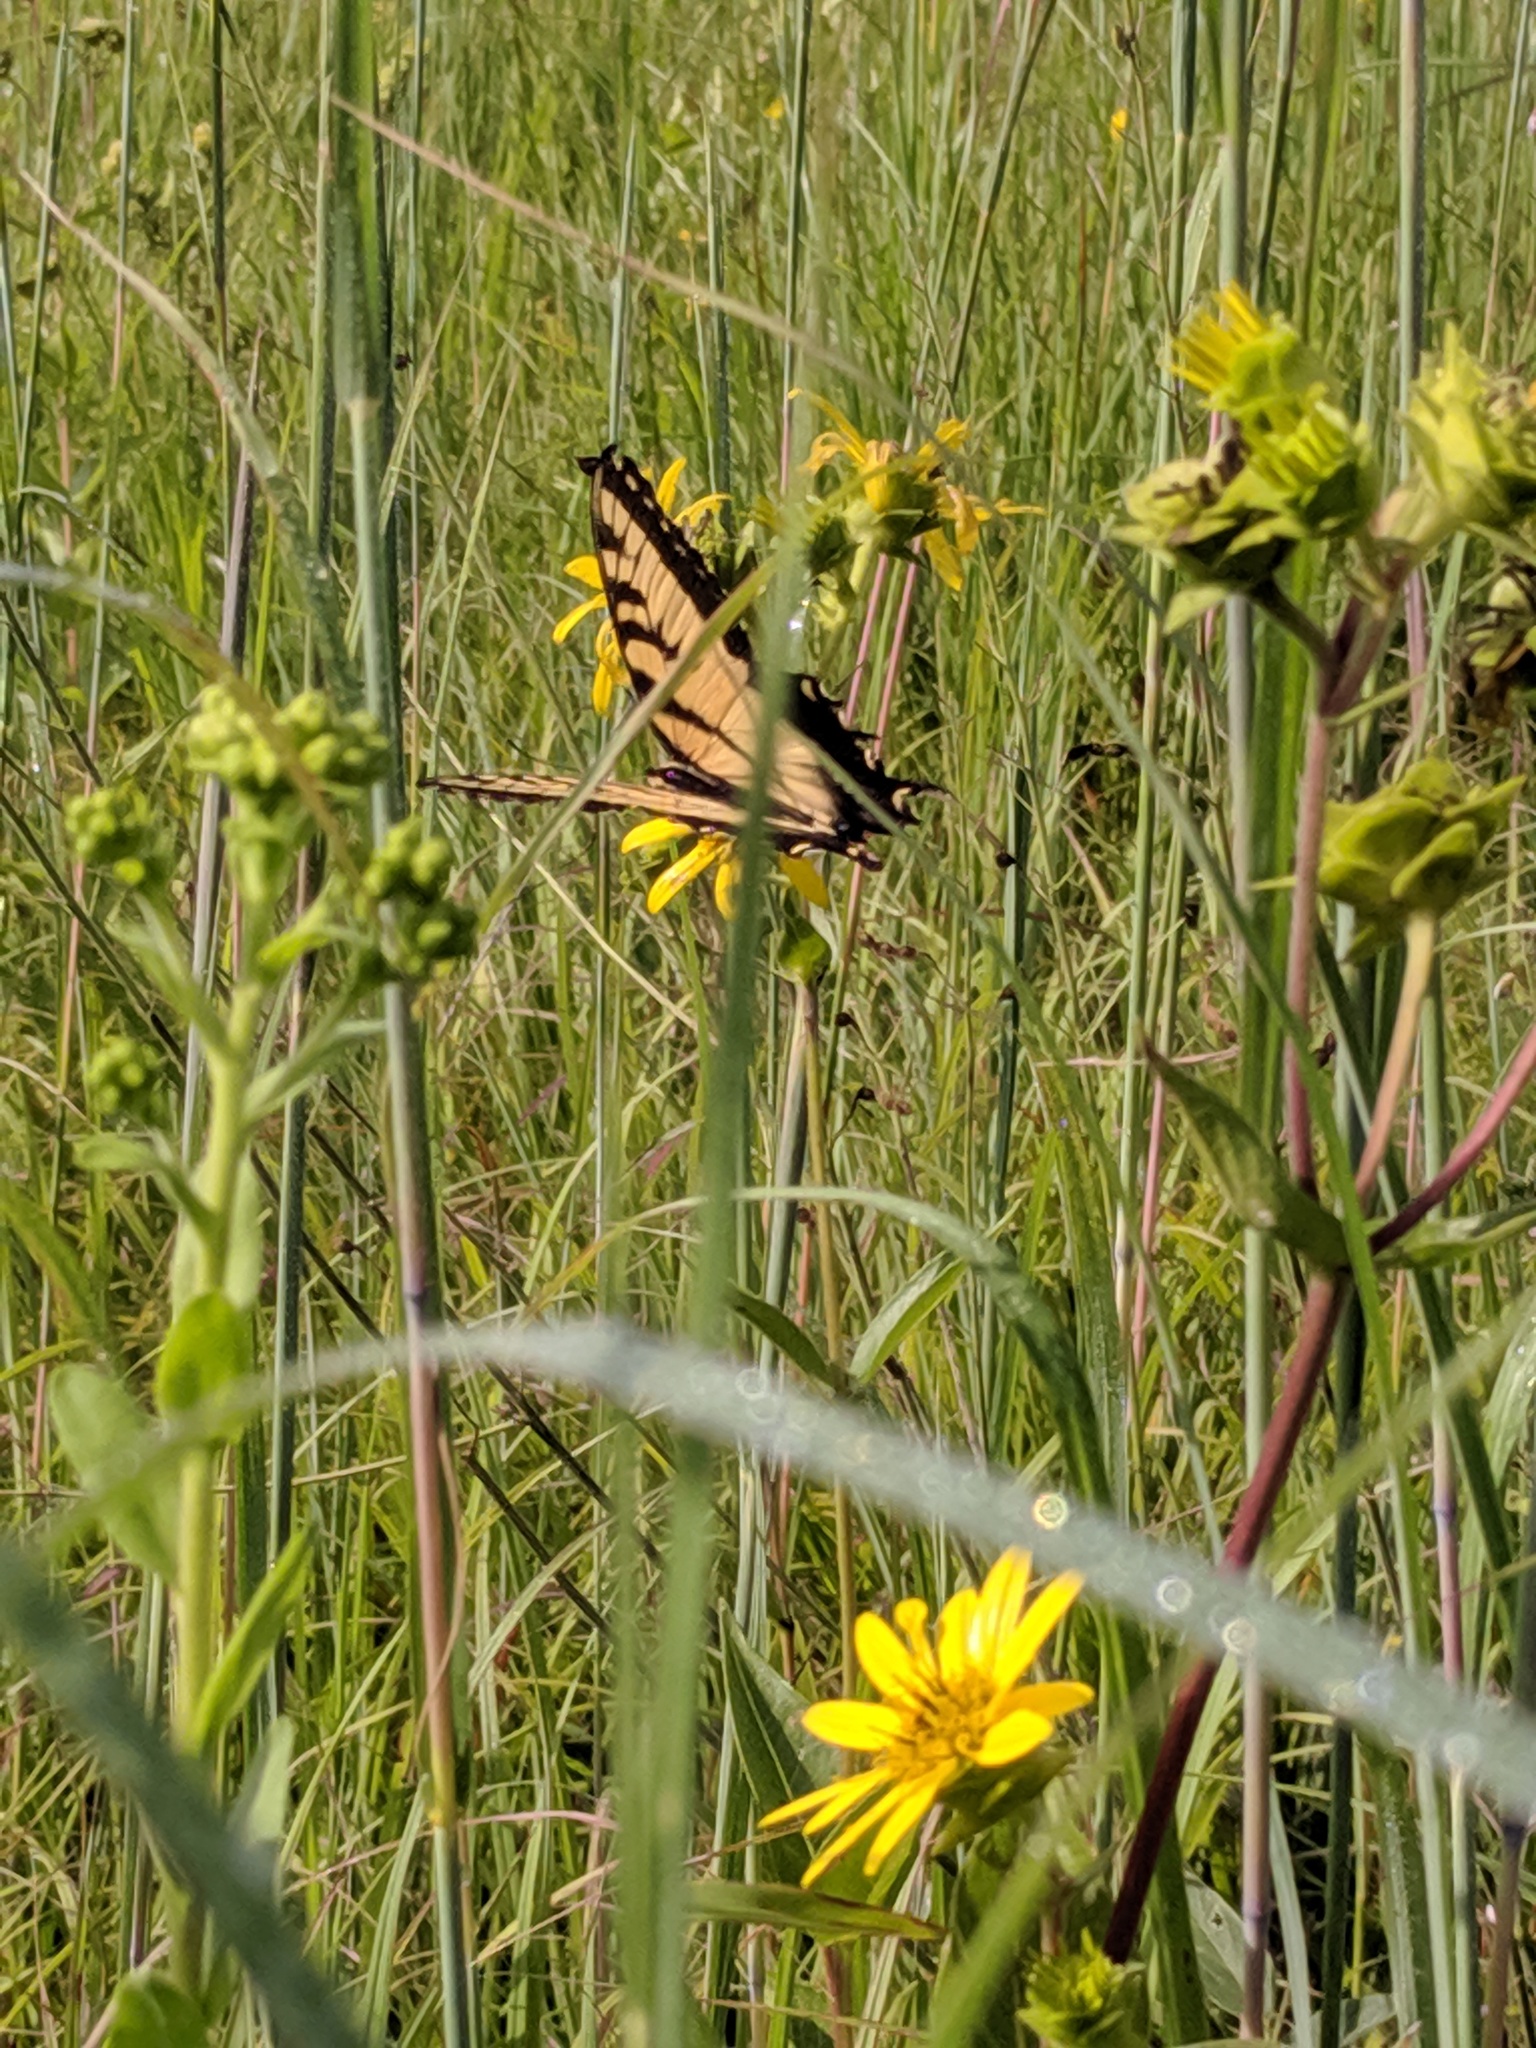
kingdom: Animalia
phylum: Arthropoda
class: Insecta
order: Lepidoptera
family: Papilionidae
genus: Papilio
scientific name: Papilio glaucus
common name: Tiger swallowtail
